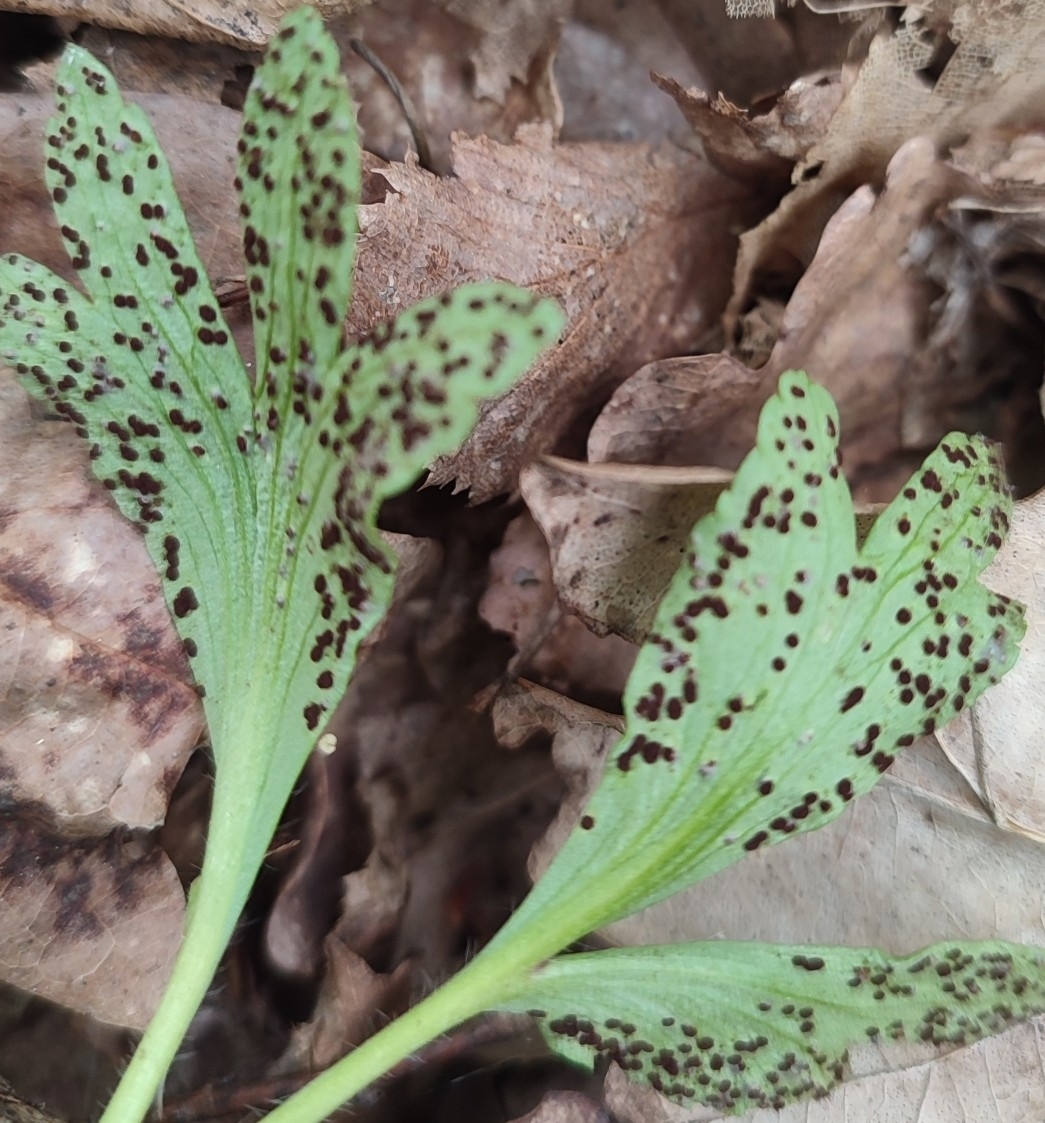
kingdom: Fungi
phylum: Basidiomycota
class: Pucciniomycetes
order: Pucciniales
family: Tranzscheliaceae
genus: Tranzschelia
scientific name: Tranzschelia anemones
